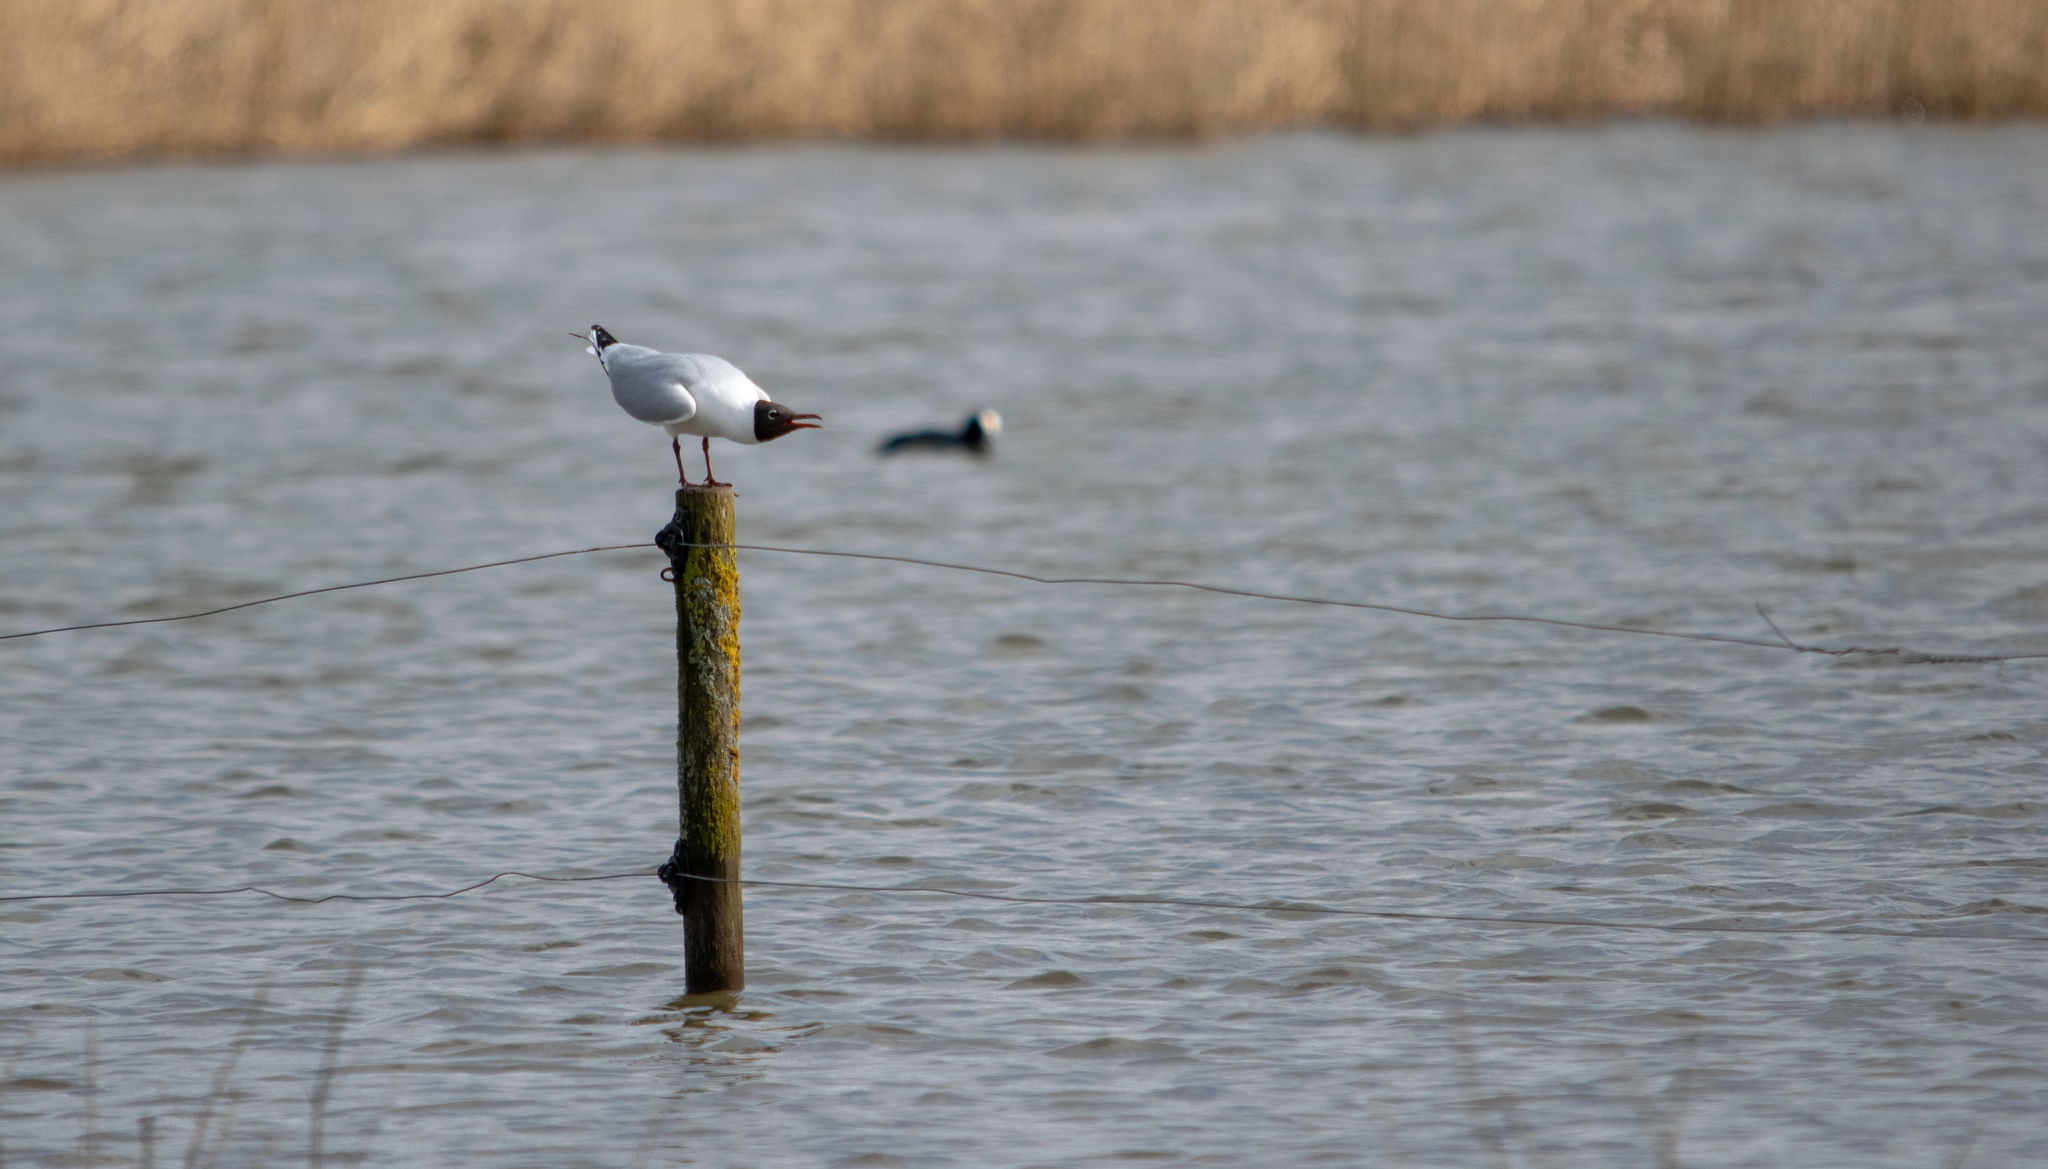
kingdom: Animalia
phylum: Chordata
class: Aves
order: Charadriiformes
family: Laridae
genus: Chroicocephalus
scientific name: Chroicocephalus ridibundus
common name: Black-headed gull
